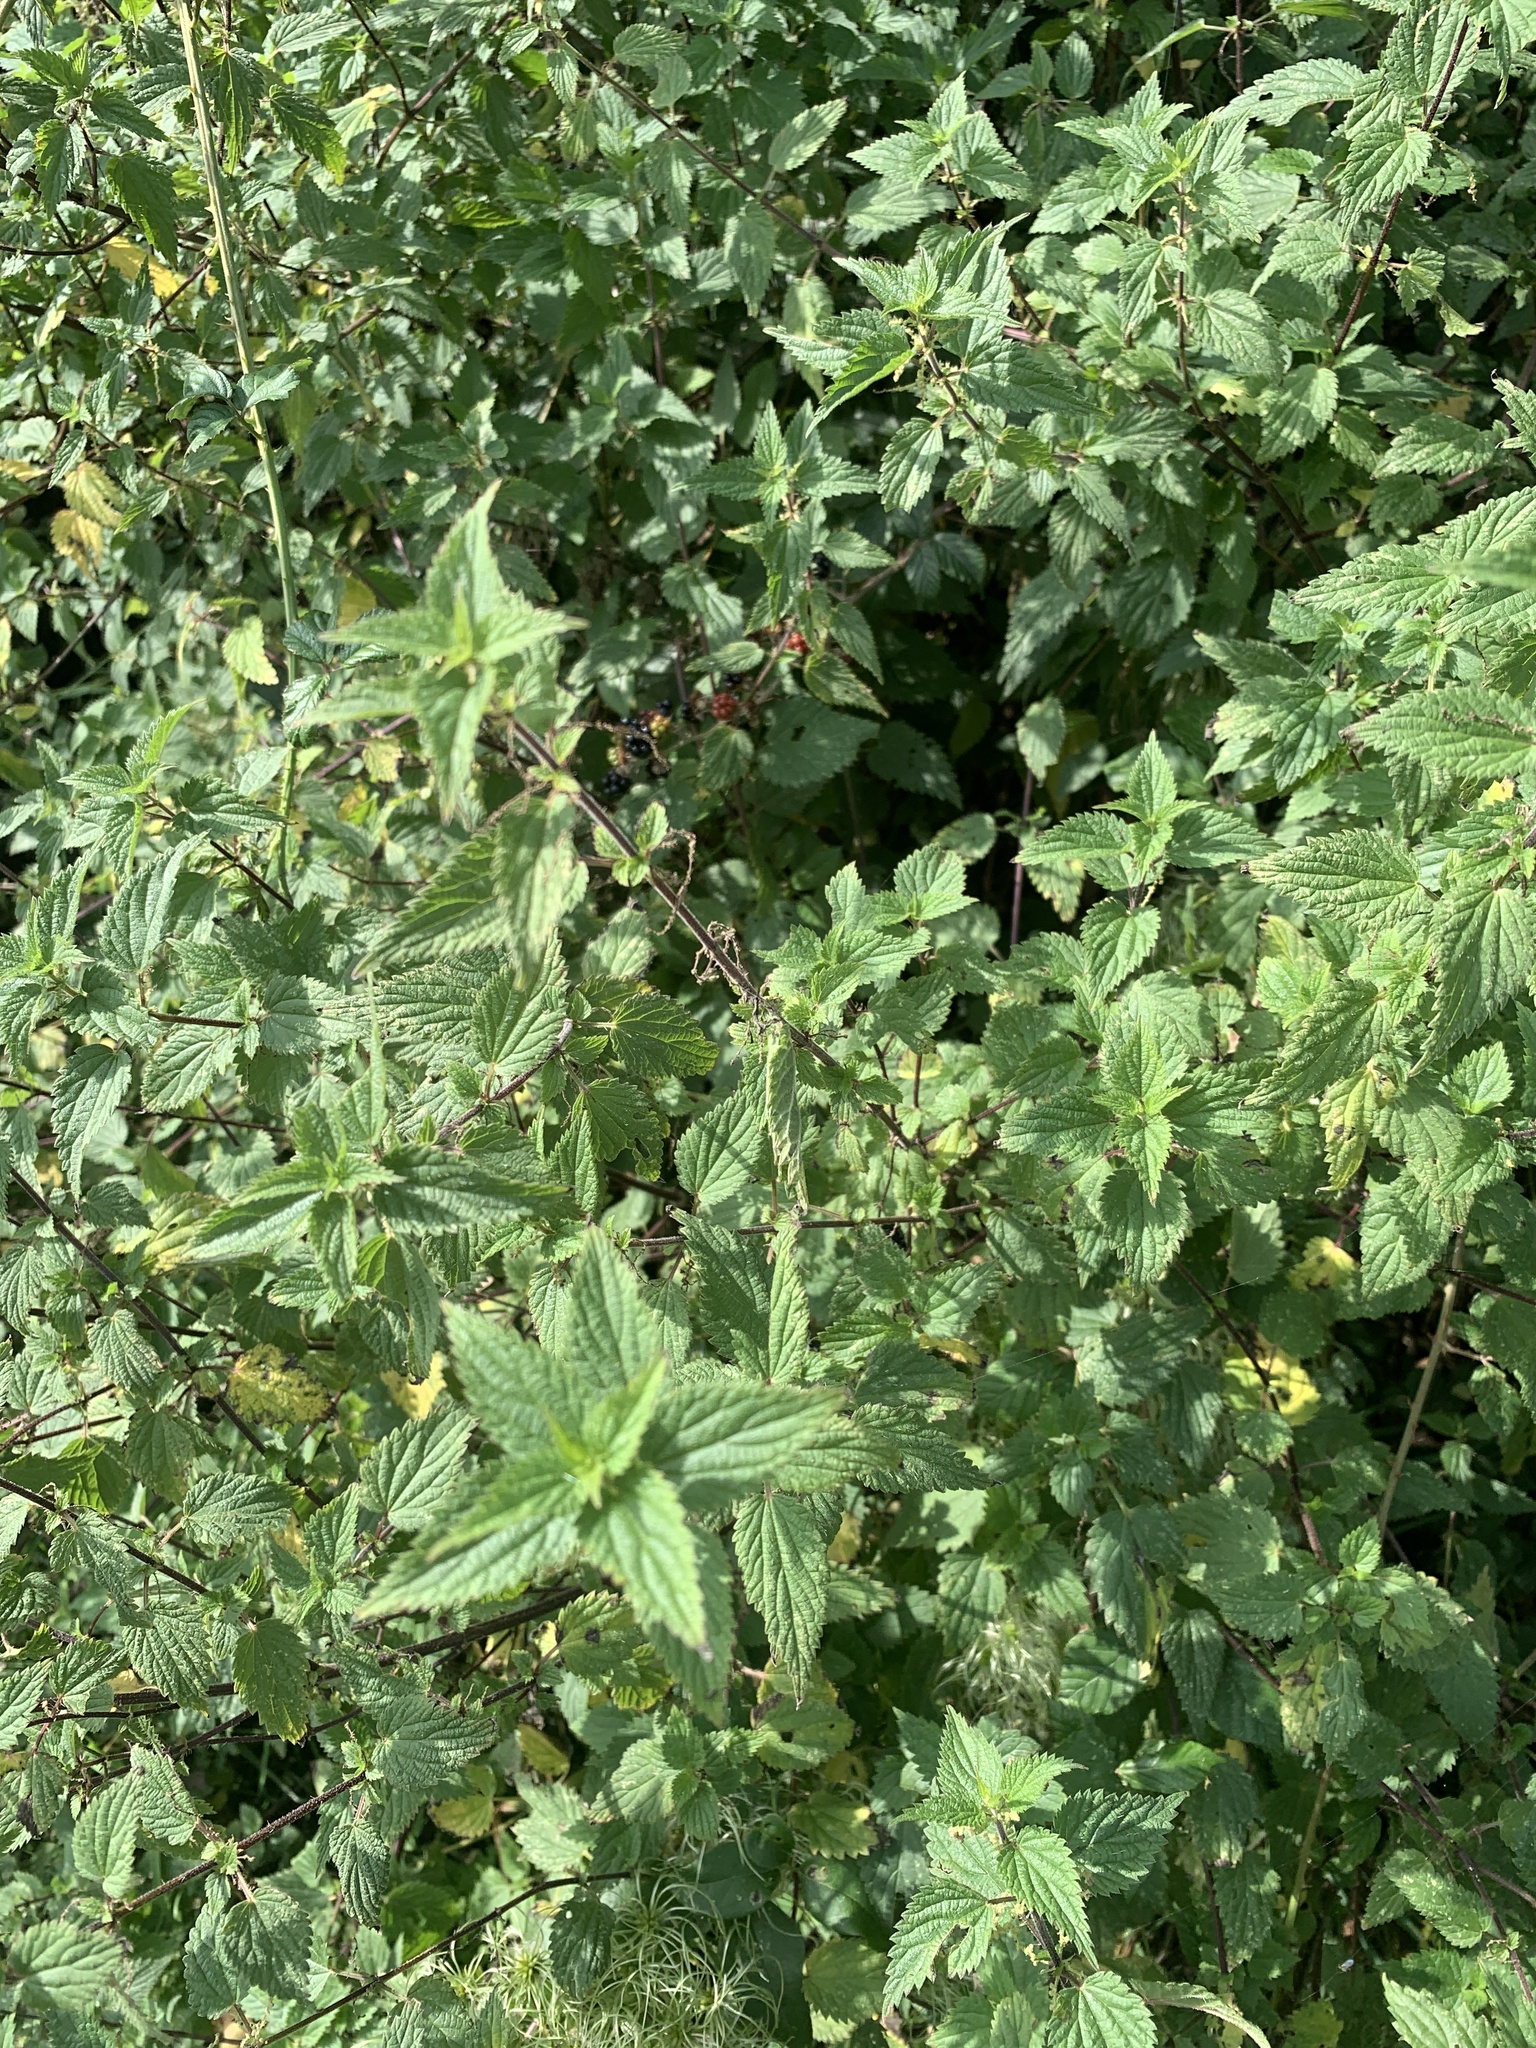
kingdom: Plantae
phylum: Tracheophyta
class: Magnoliopsida
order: Rosales
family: Urticaceae
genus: Urtica
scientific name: Urtica dioica
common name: Common nettle
